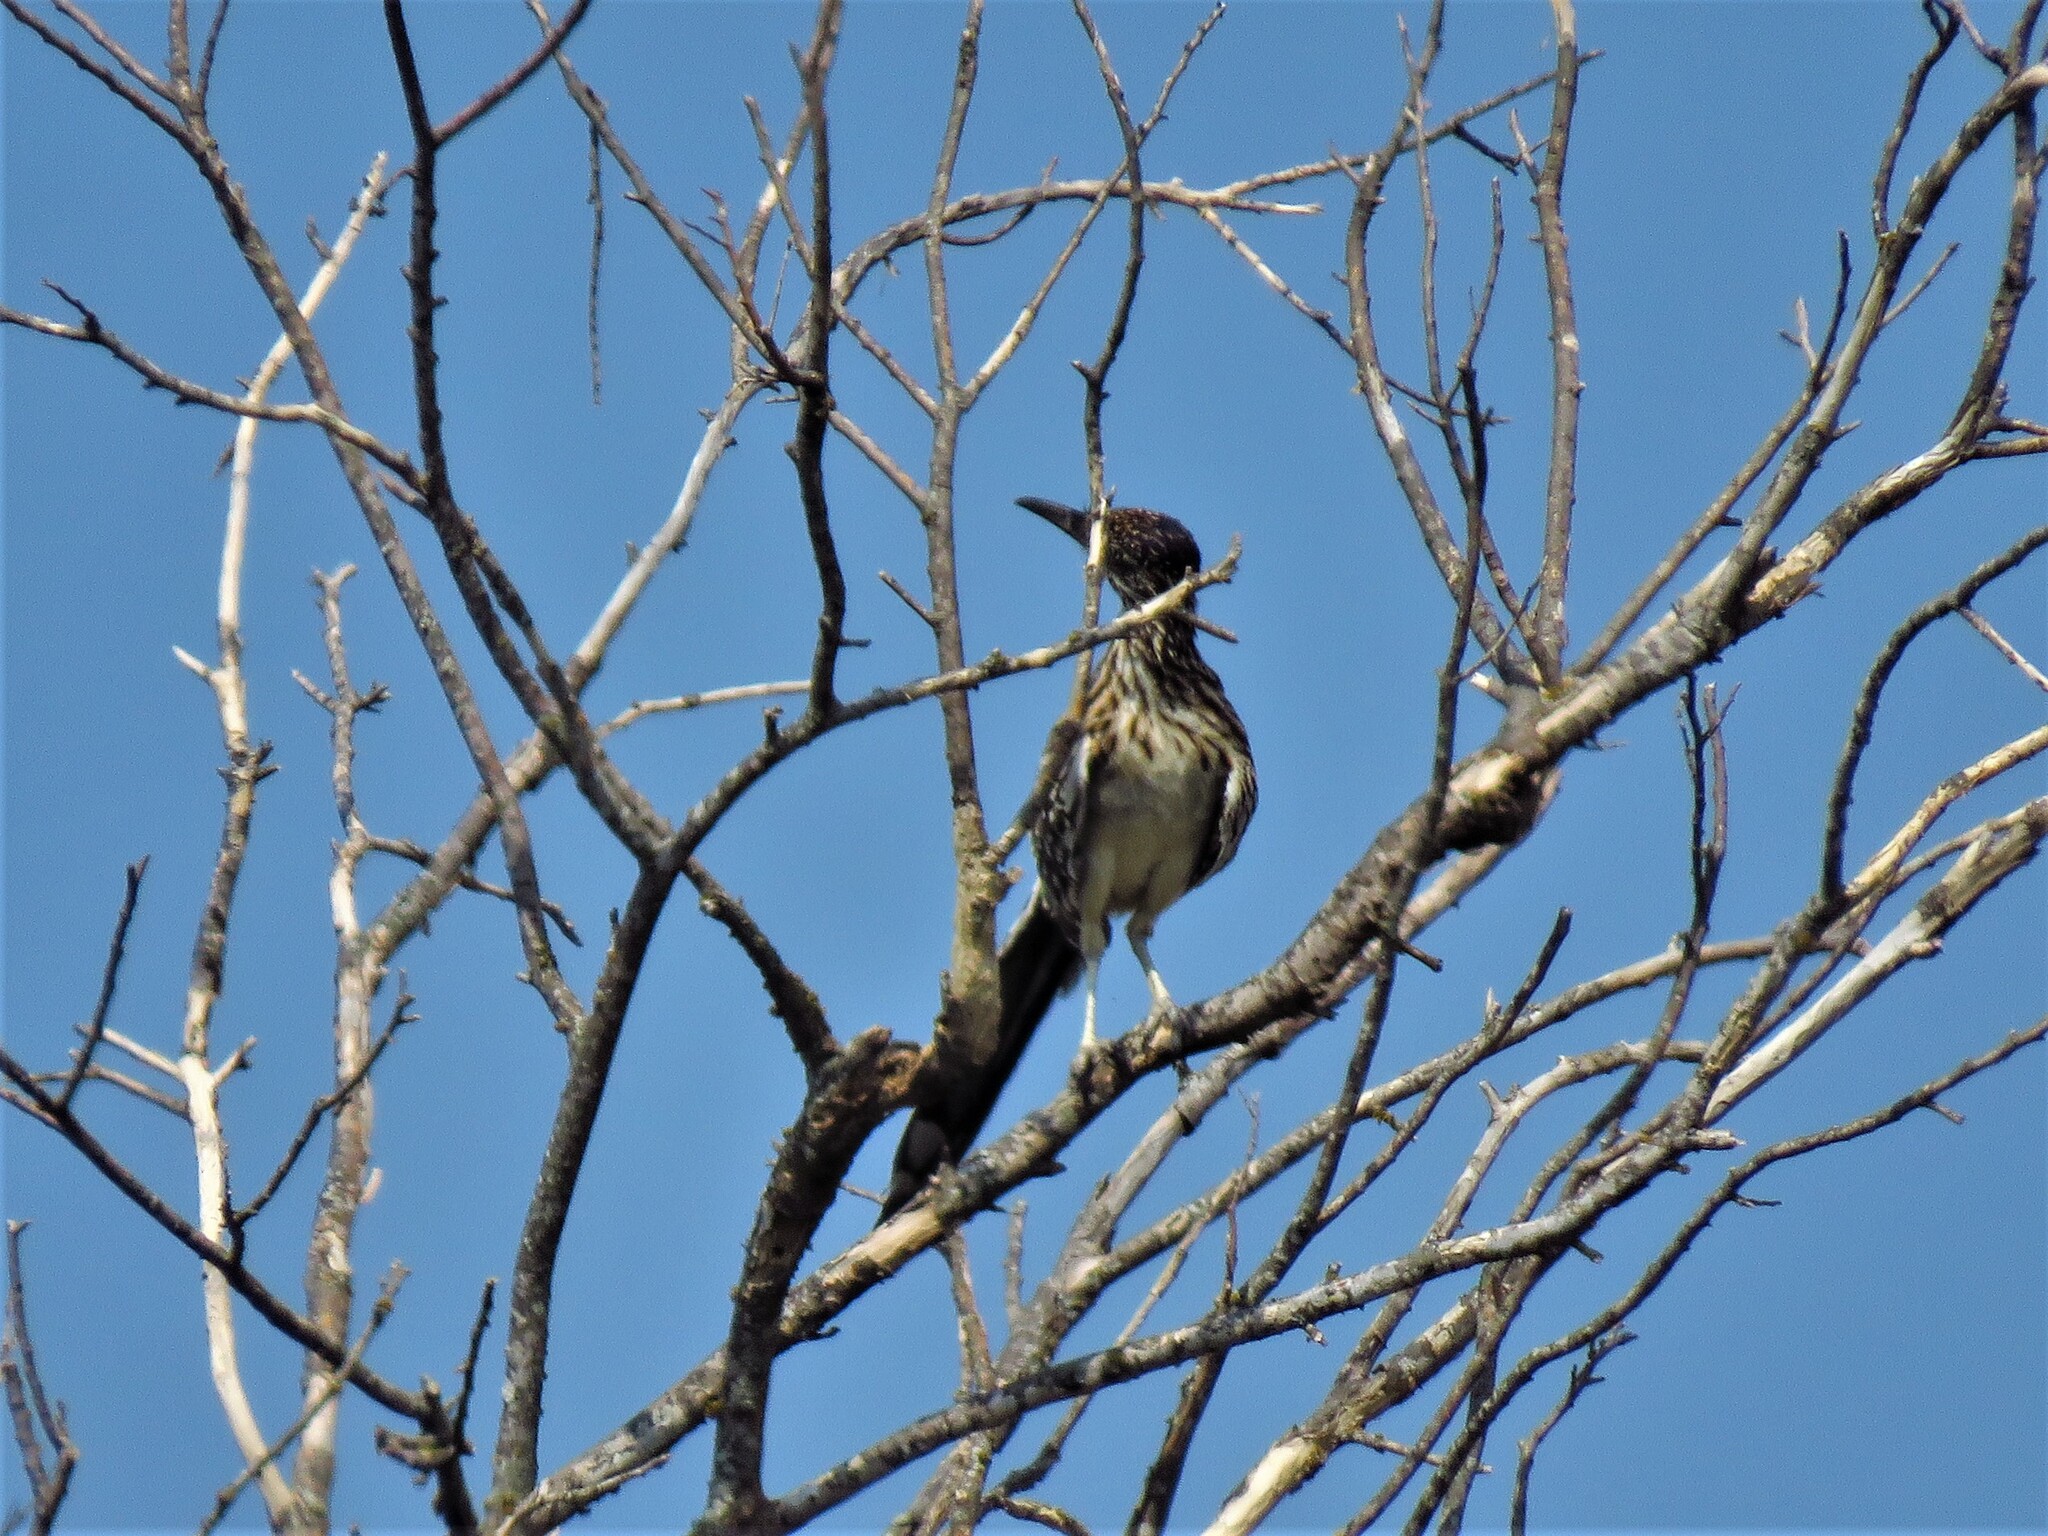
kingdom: Animalia
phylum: Chordata
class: Aves
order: Cuculiformes
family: Cuculidae
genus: Geococcyx
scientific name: Geococcyx californianus
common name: Greater roadrunner
